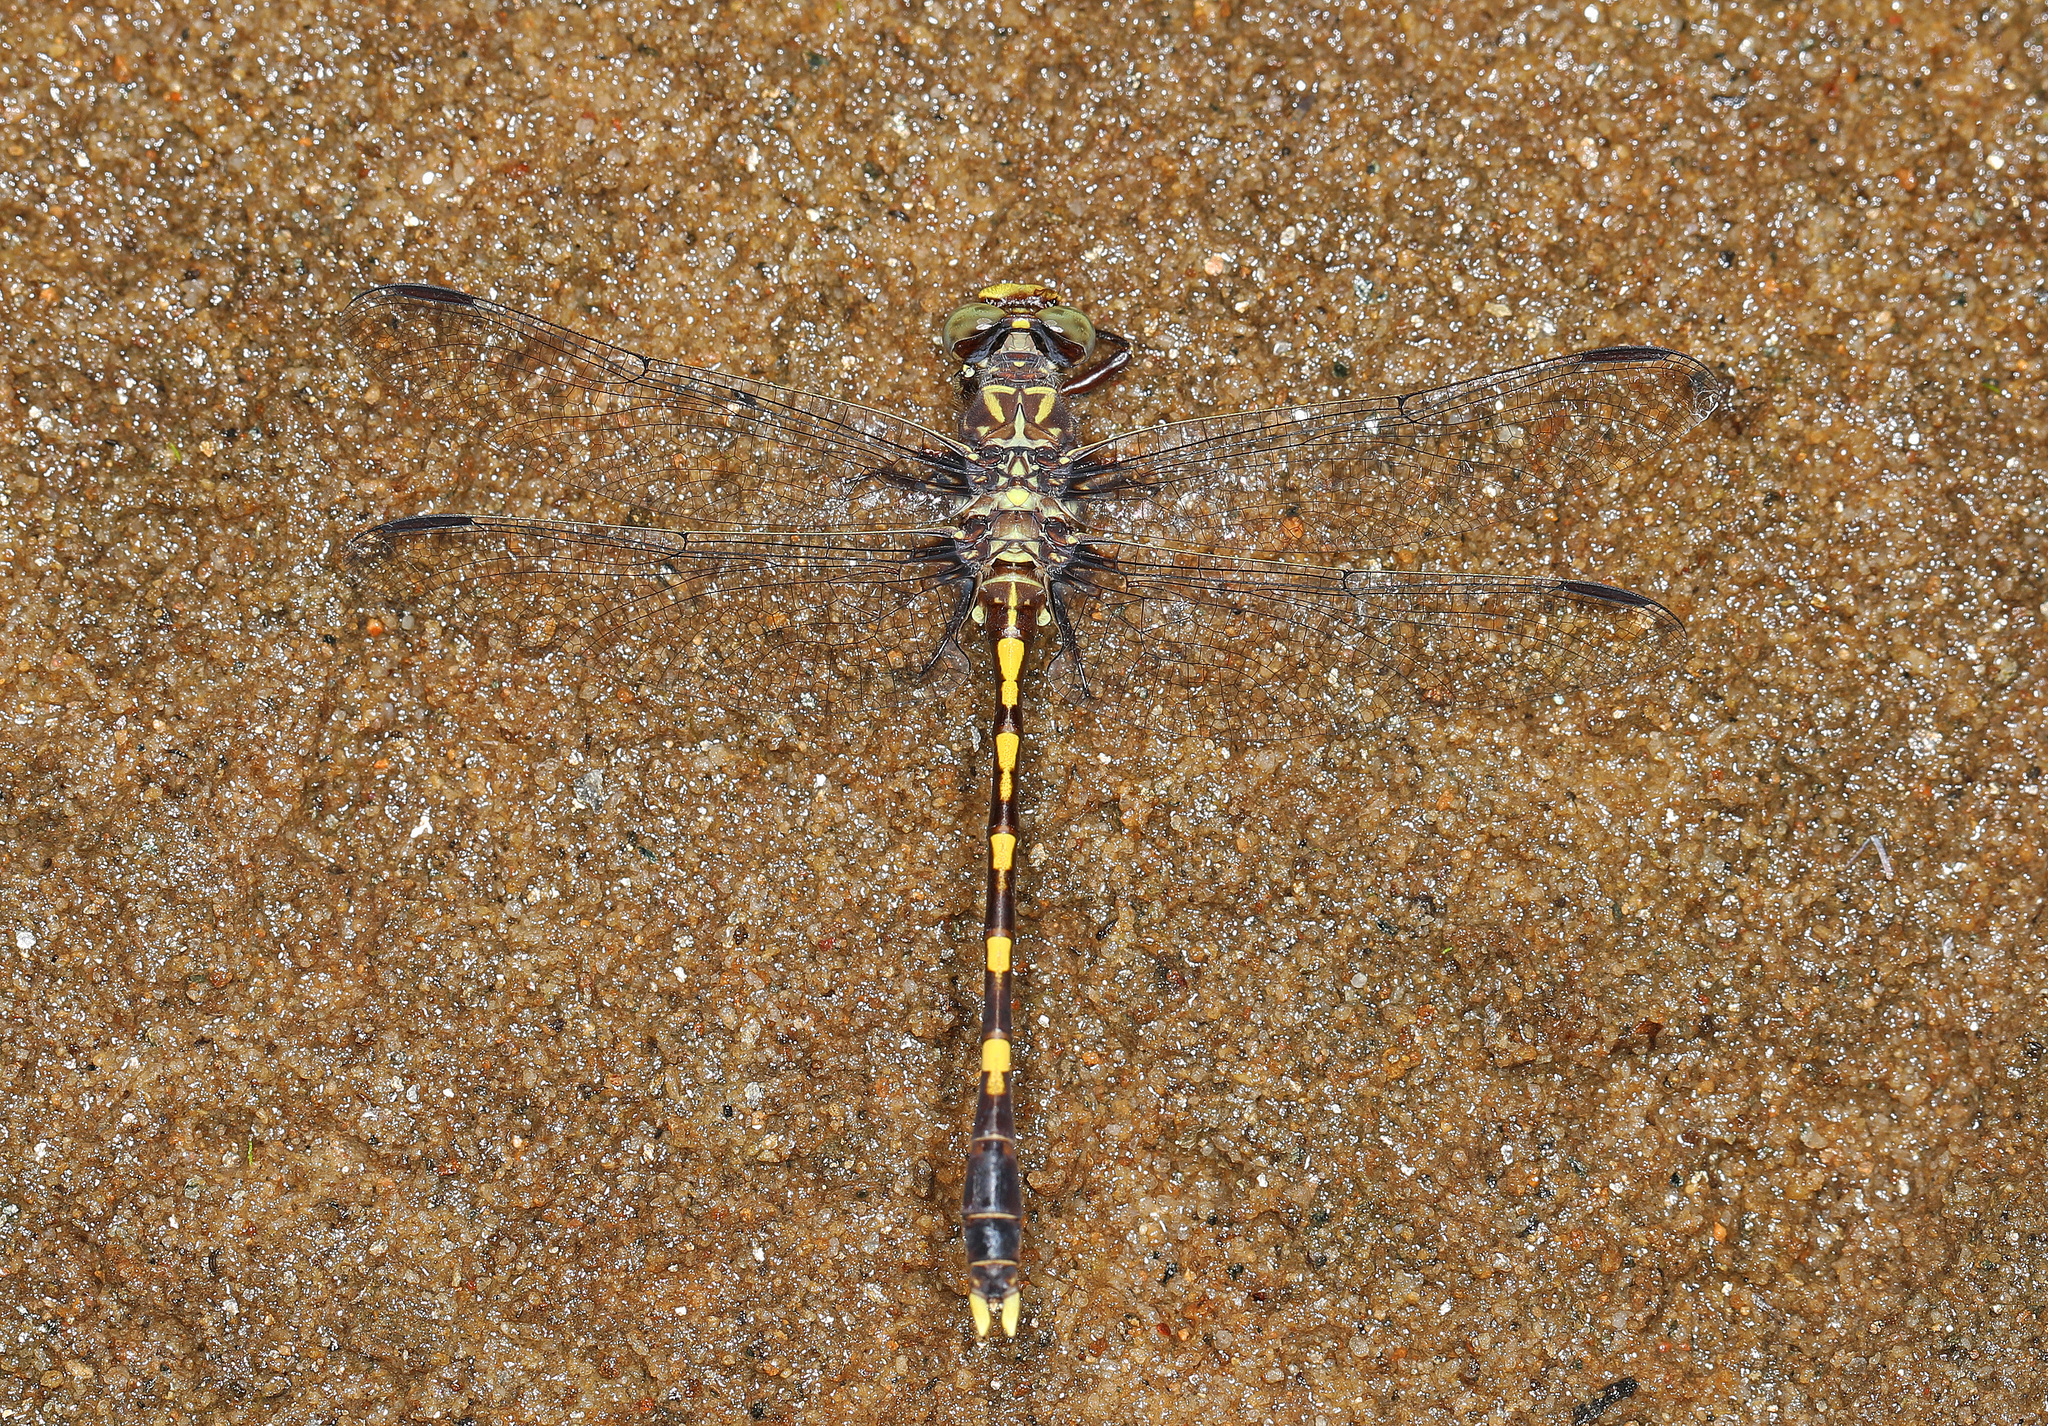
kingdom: Animalia
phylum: Arthropoda
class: Insecta
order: Odonata
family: Gomphidae
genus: Progomphus
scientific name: Progomphus obscurus
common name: Common sanddragon
